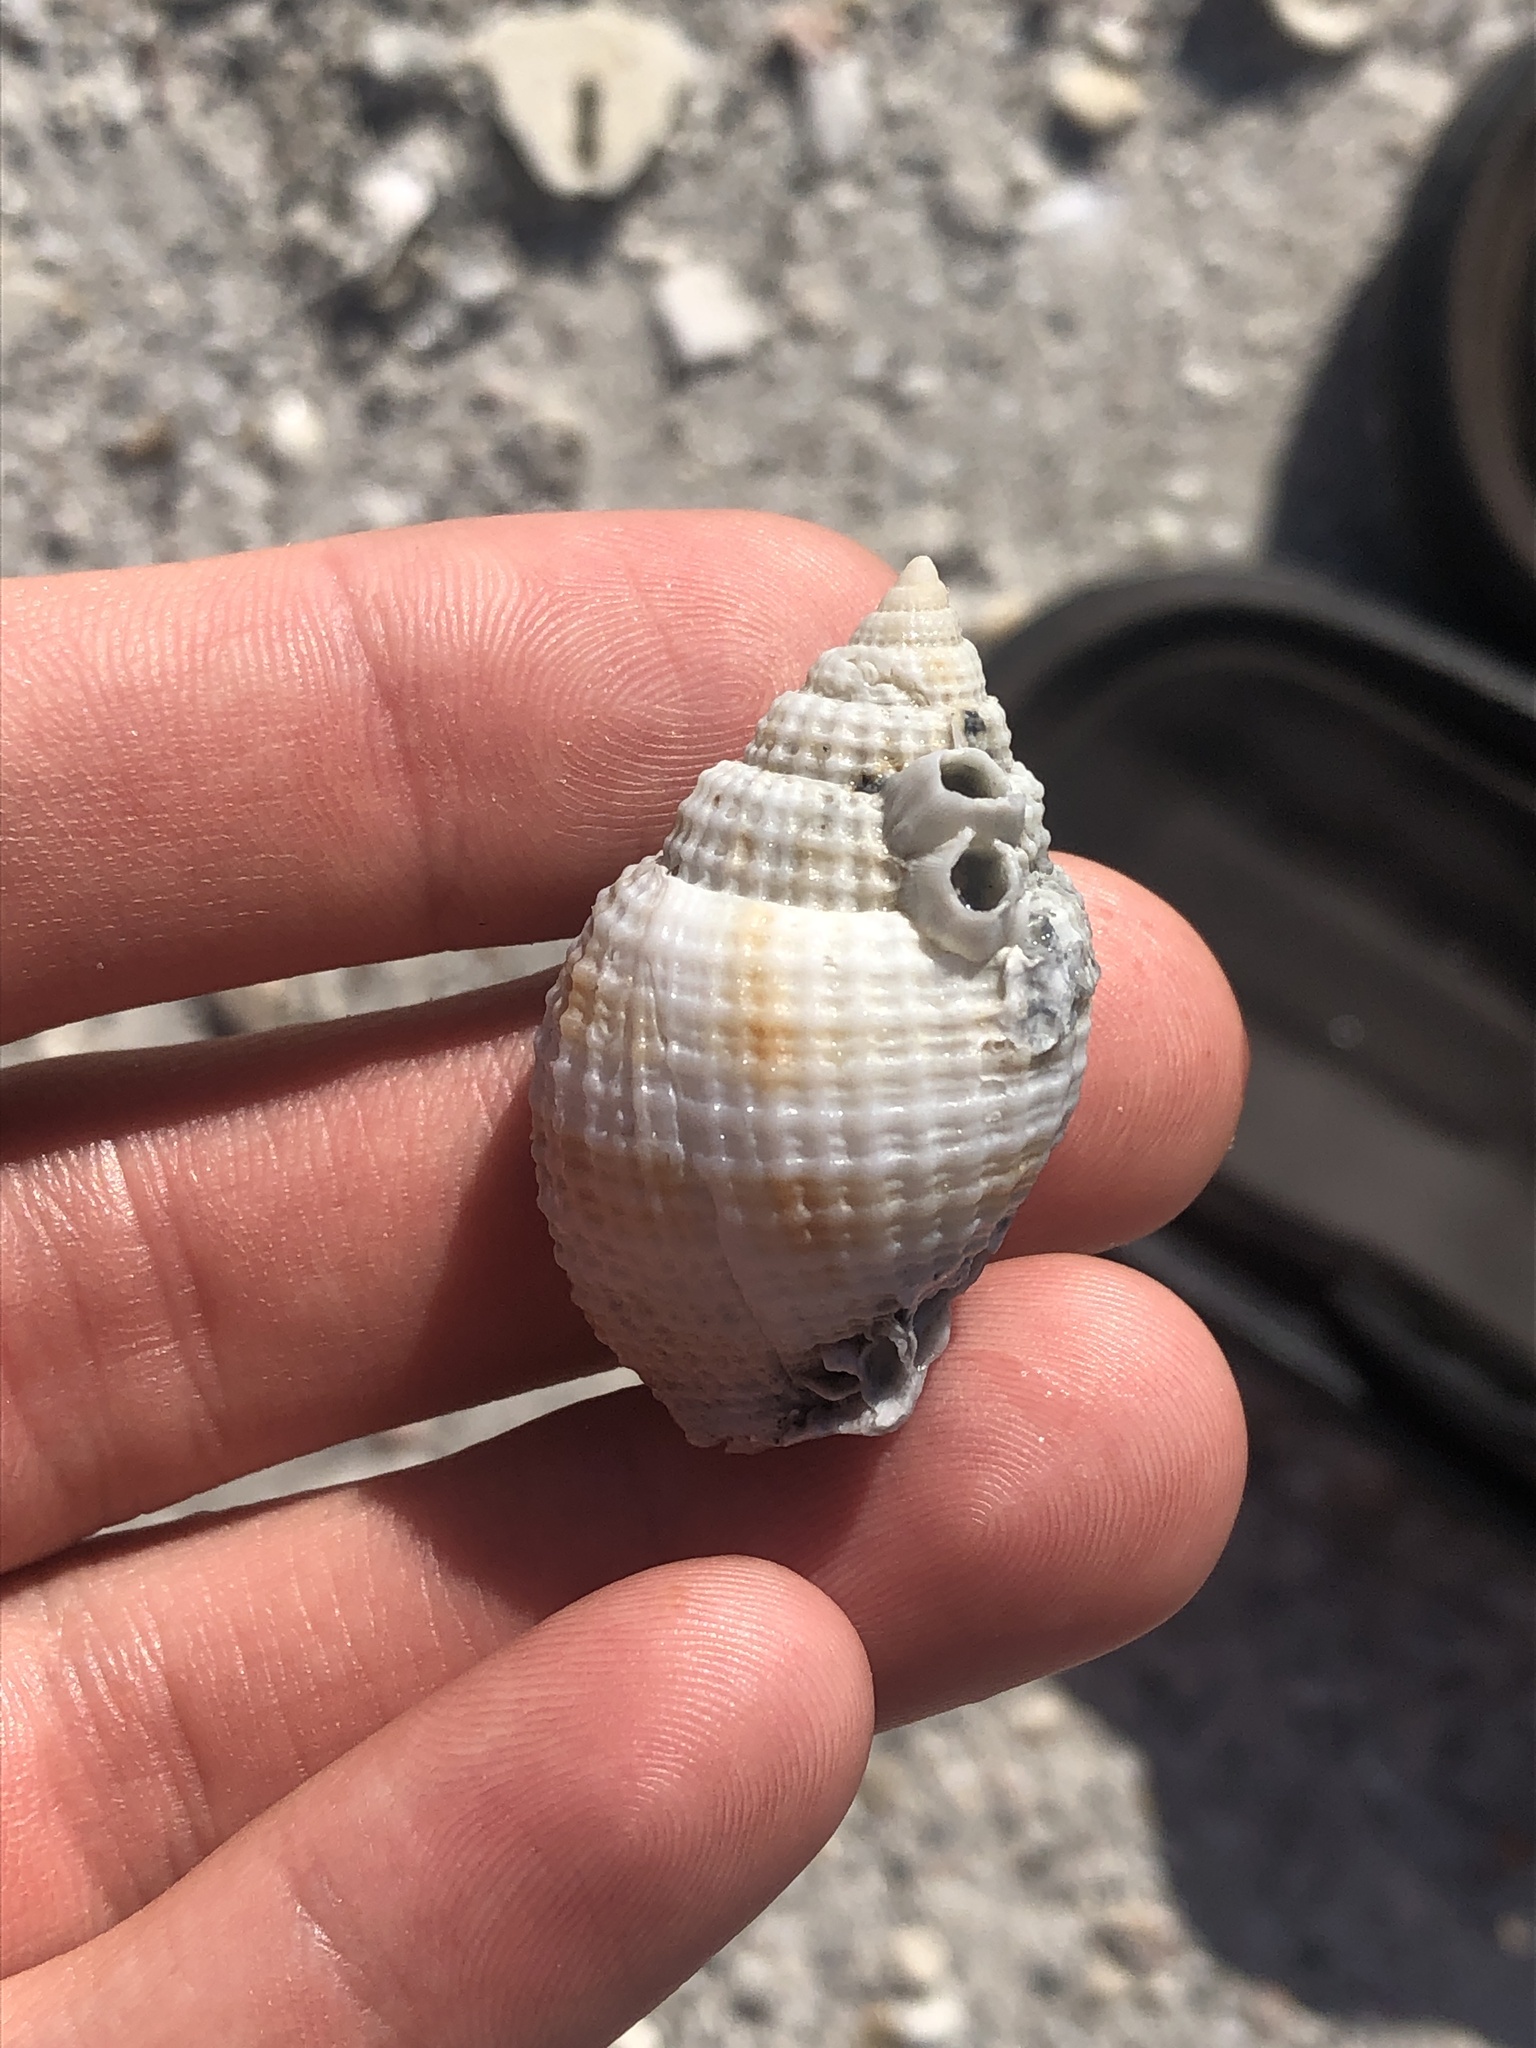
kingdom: Animalia
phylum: Mollusca
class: Gastropoda
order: Neogastropoda
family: Cancellariidae
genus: Cancellaria
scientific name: Cancellaria reticulata
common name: Common nutmeg
